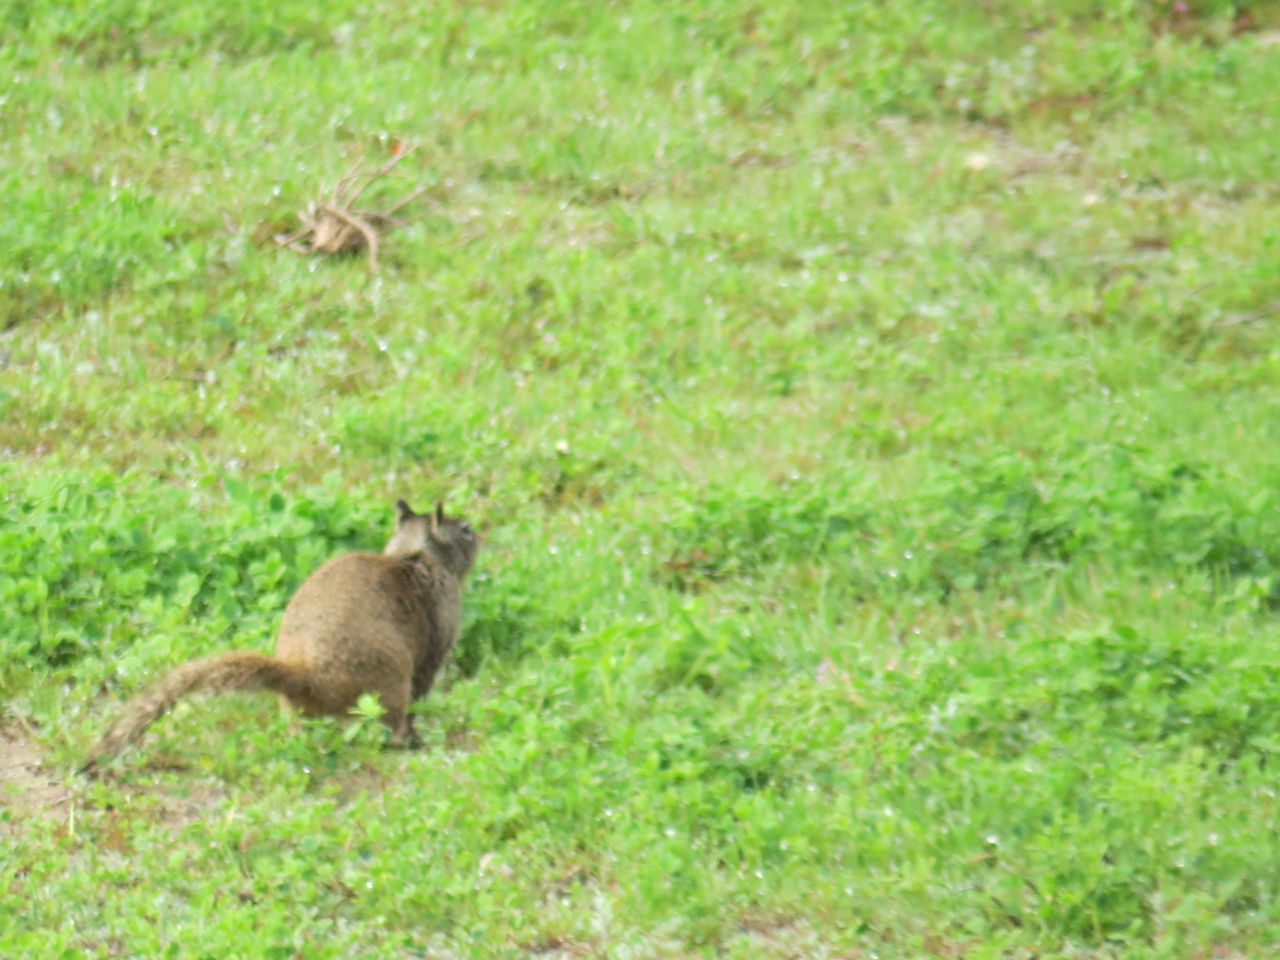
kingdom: Animalia
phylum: Chordata
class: Mammalia
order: Rodentia
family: Sciuridae
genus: Otospermophilus
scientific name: Otospermophilus beecheyi
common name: California ground squirrel
